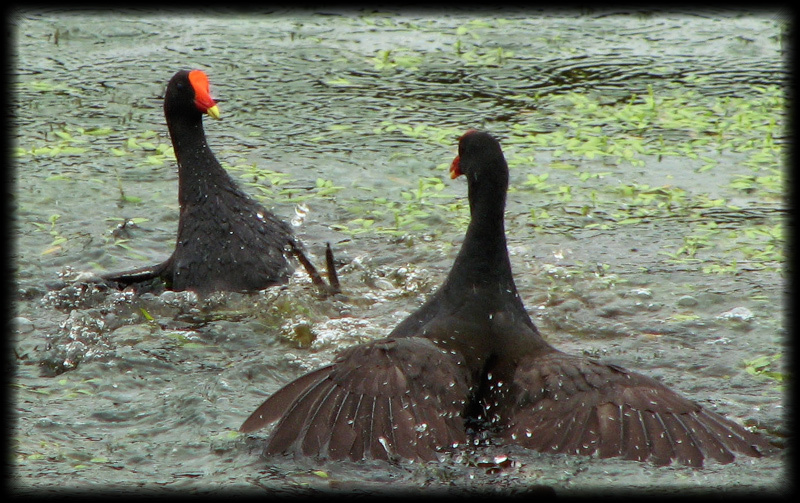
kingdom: Animalia
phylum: Chordata
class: Aves
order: Gruiformes
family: Rallidae
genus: Gallinula
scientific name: Gallinula tenebrosa
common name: Dusky moorhen
